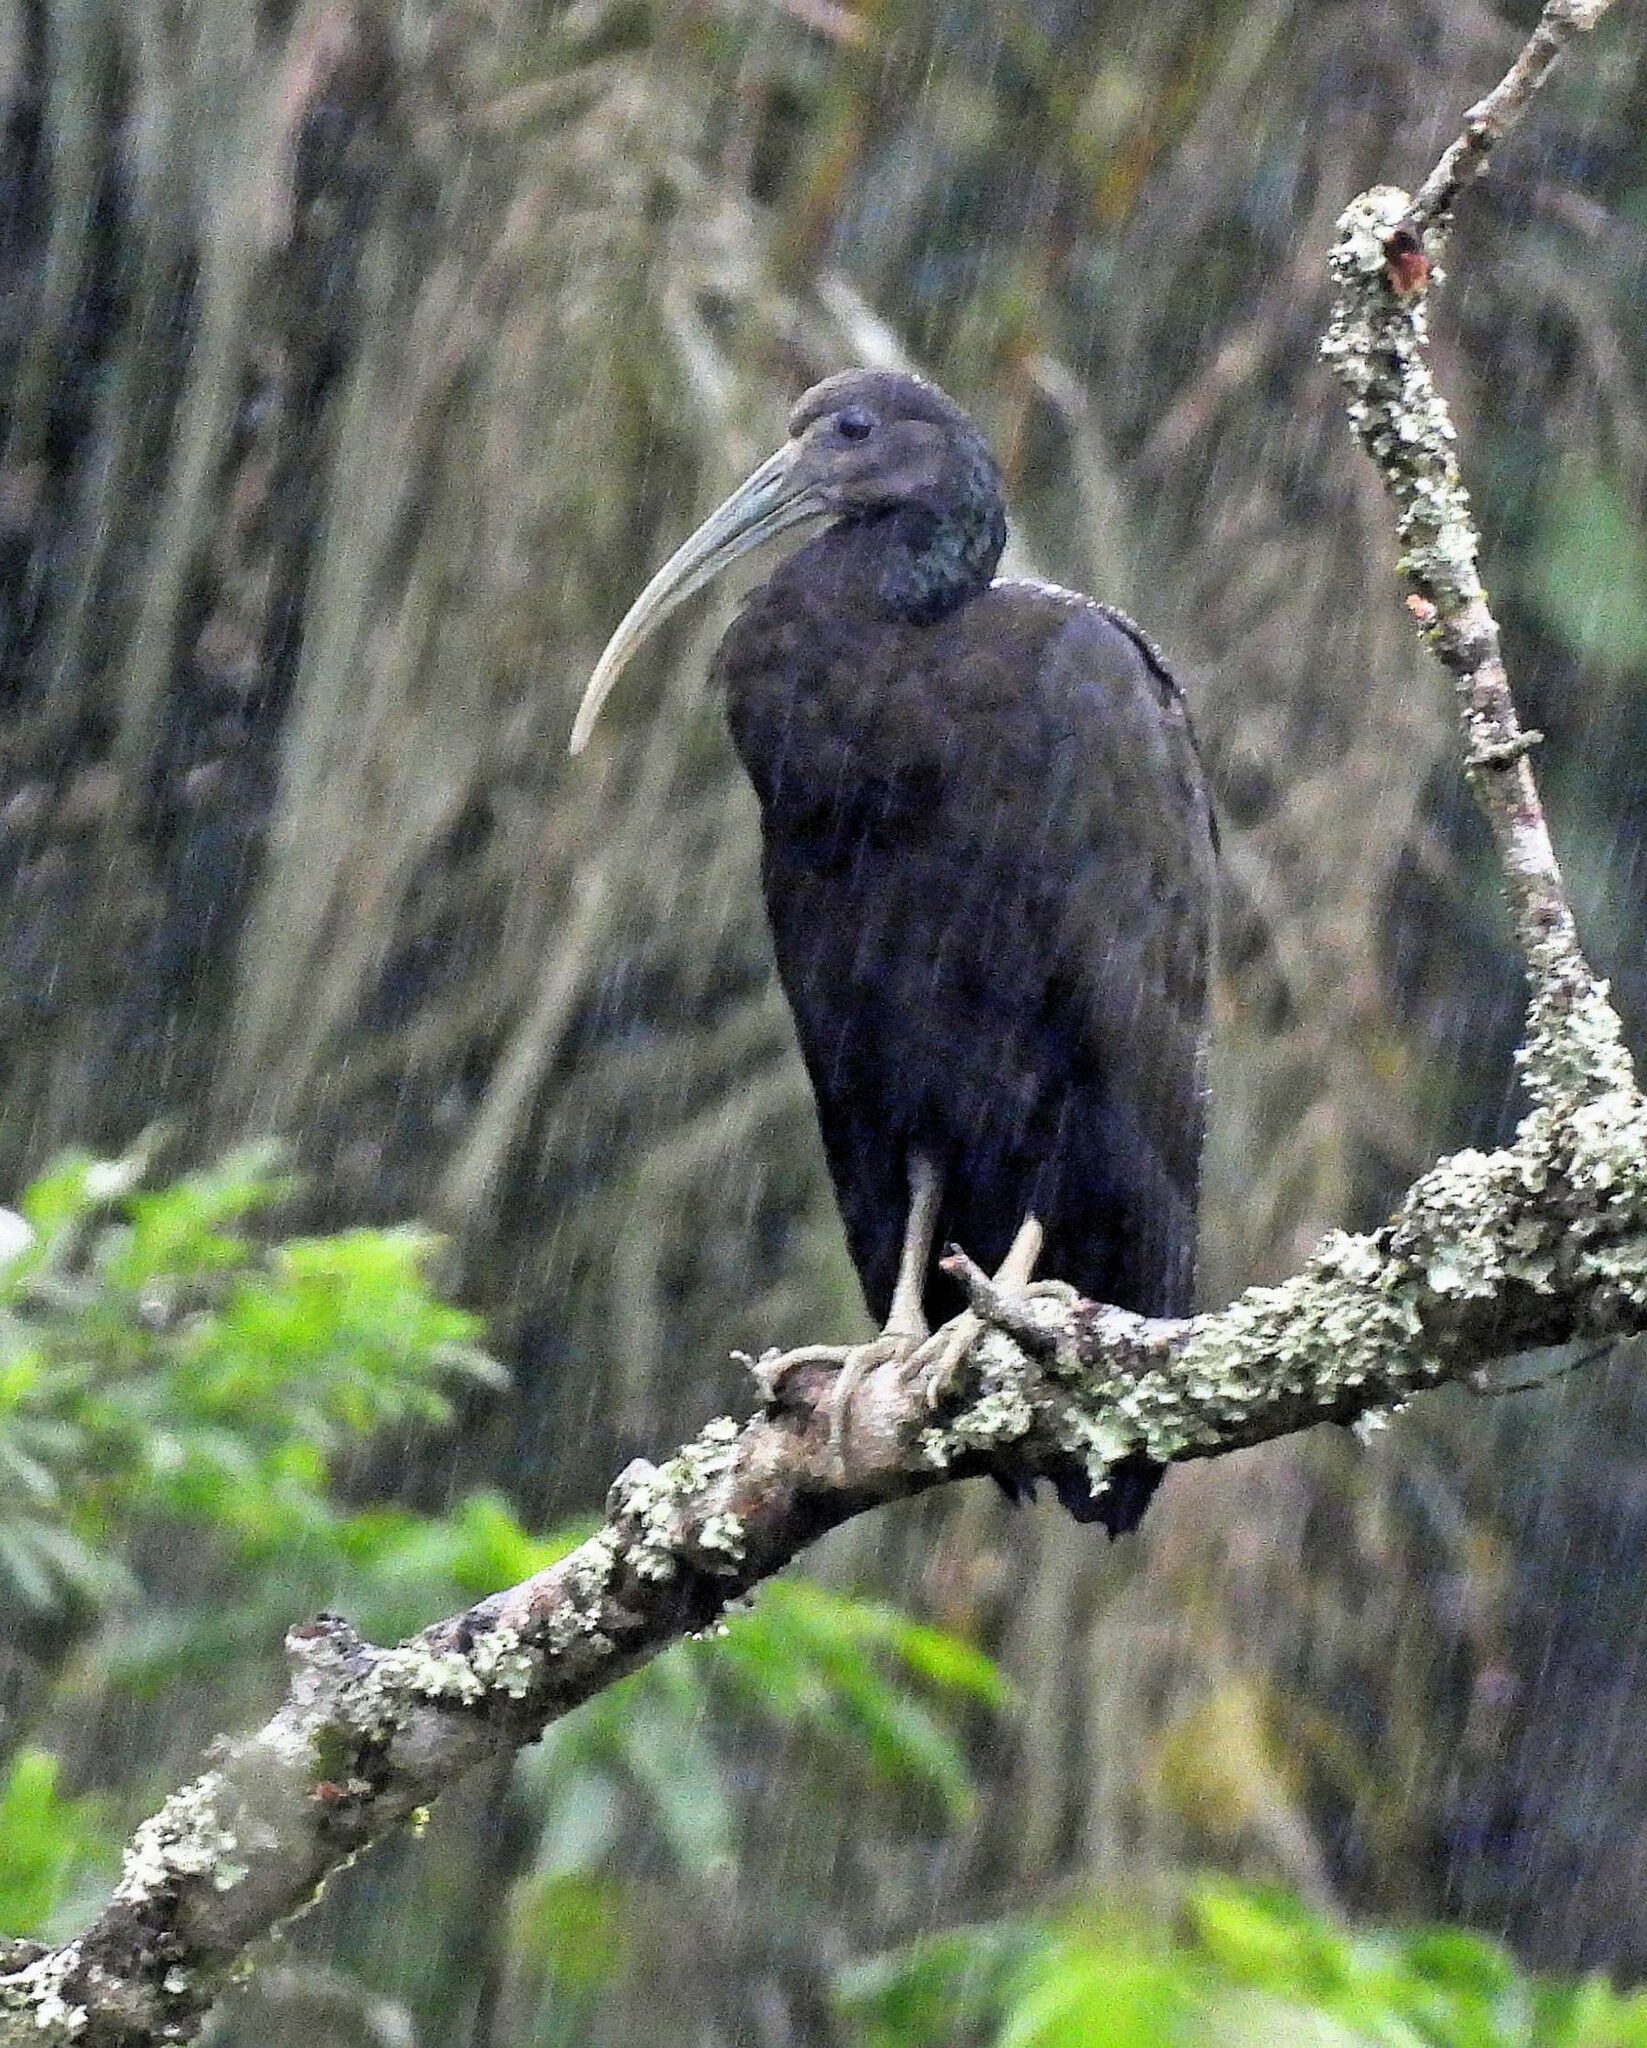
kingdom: Animalia
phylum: Chordata
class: Aves
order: Pelecaniformes
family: Threskiornithidae
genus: Mesembrinibis
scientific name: Mesembrinibis cayennensis
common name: Green ibis
